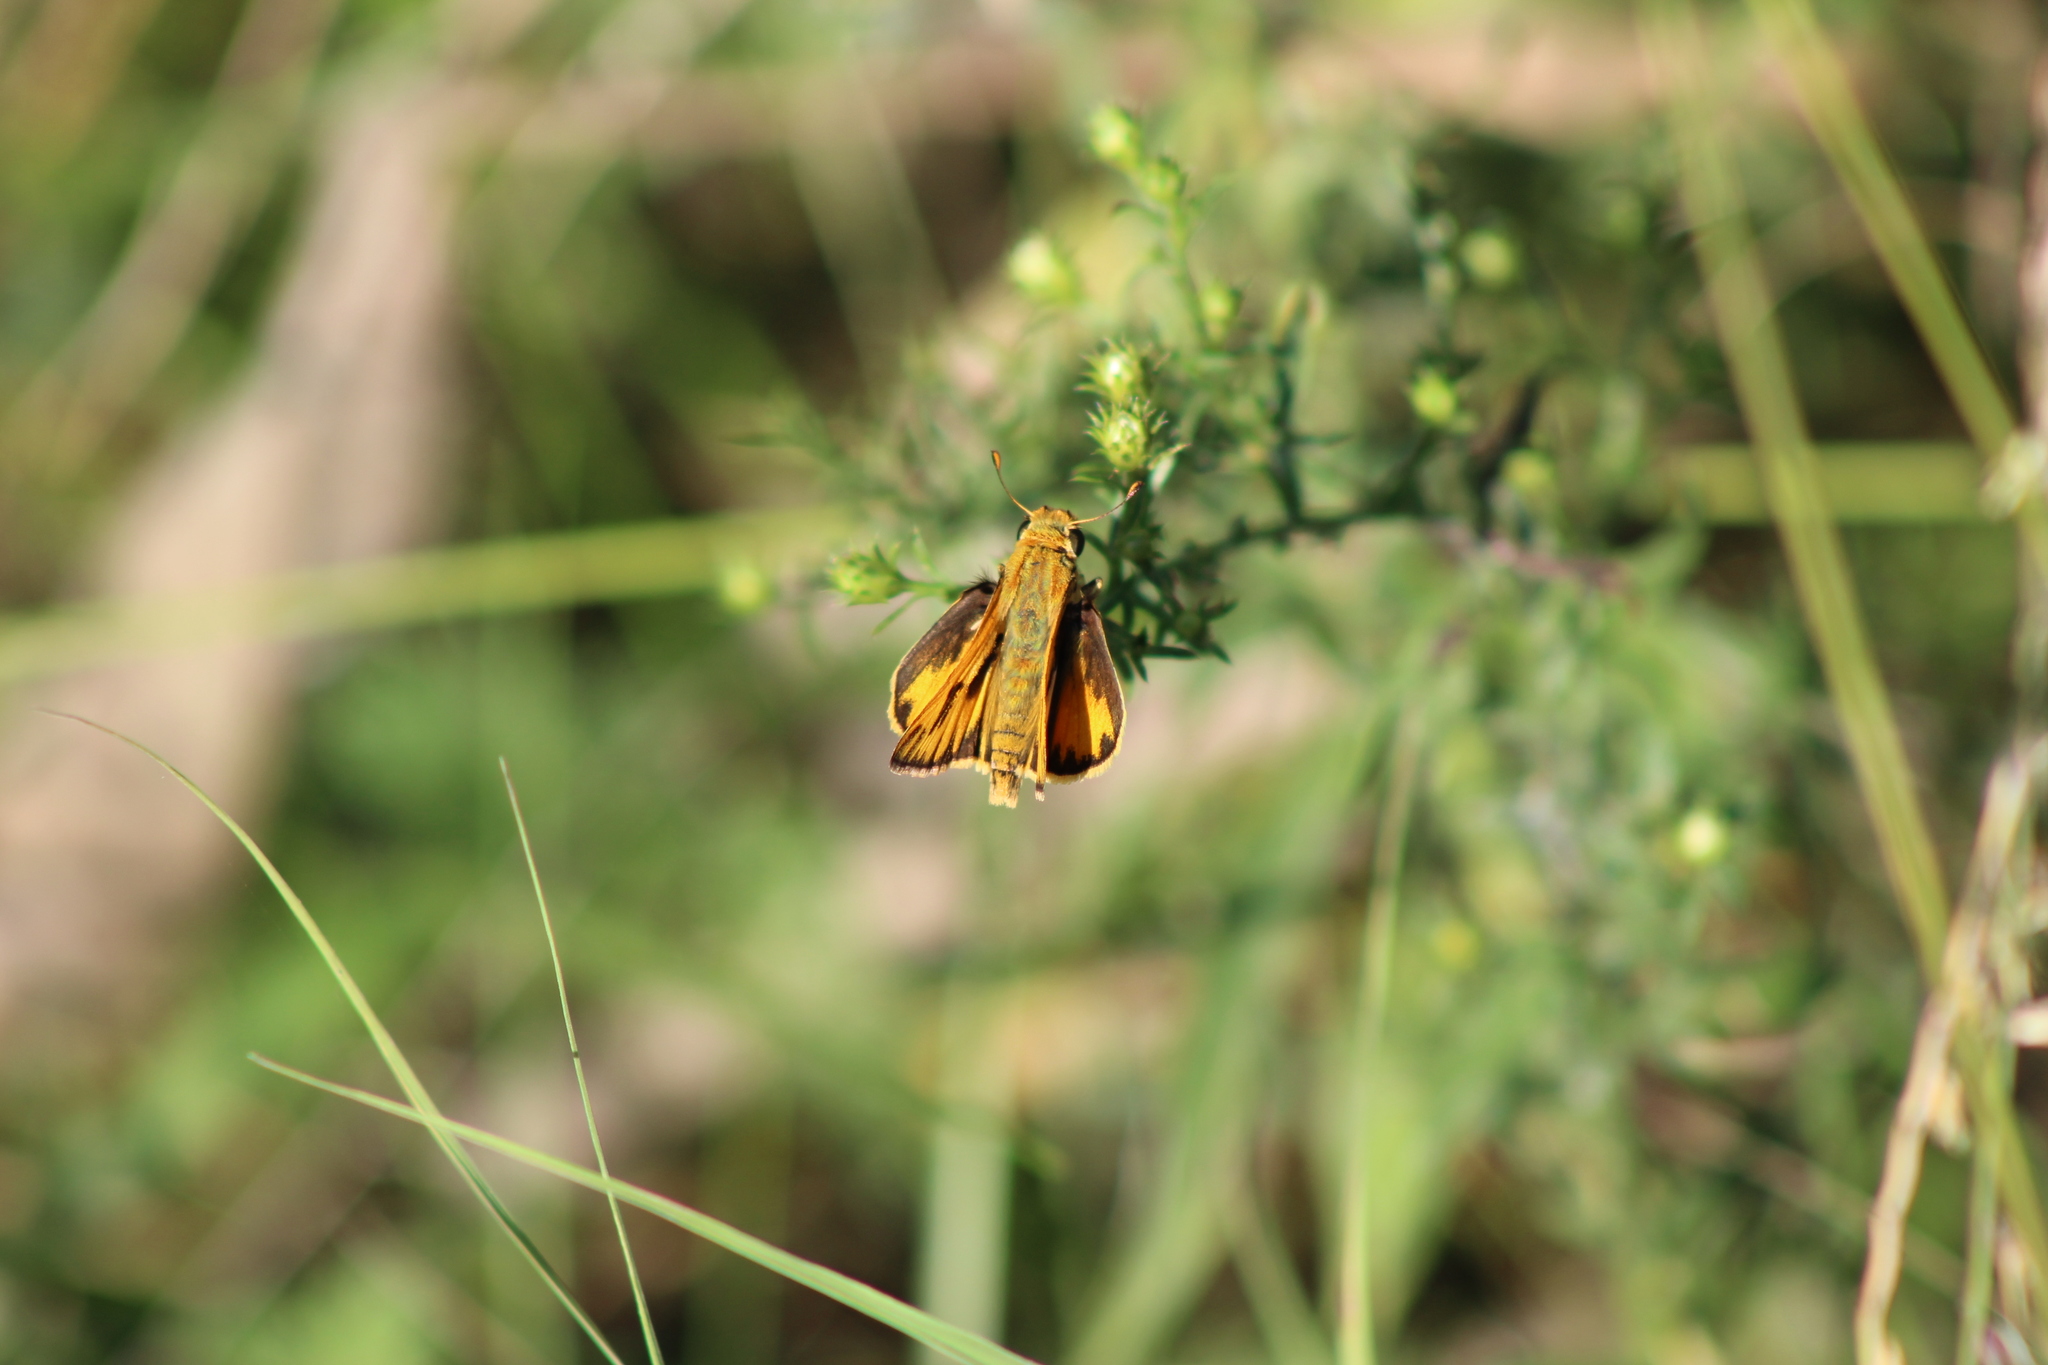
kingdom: Animalia
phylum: Arthropoda
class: Insecta
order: Lepidoptera
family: Hesperiidae
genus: Hylephila
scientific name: Hylephila phyleus
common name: Fiery skipper
